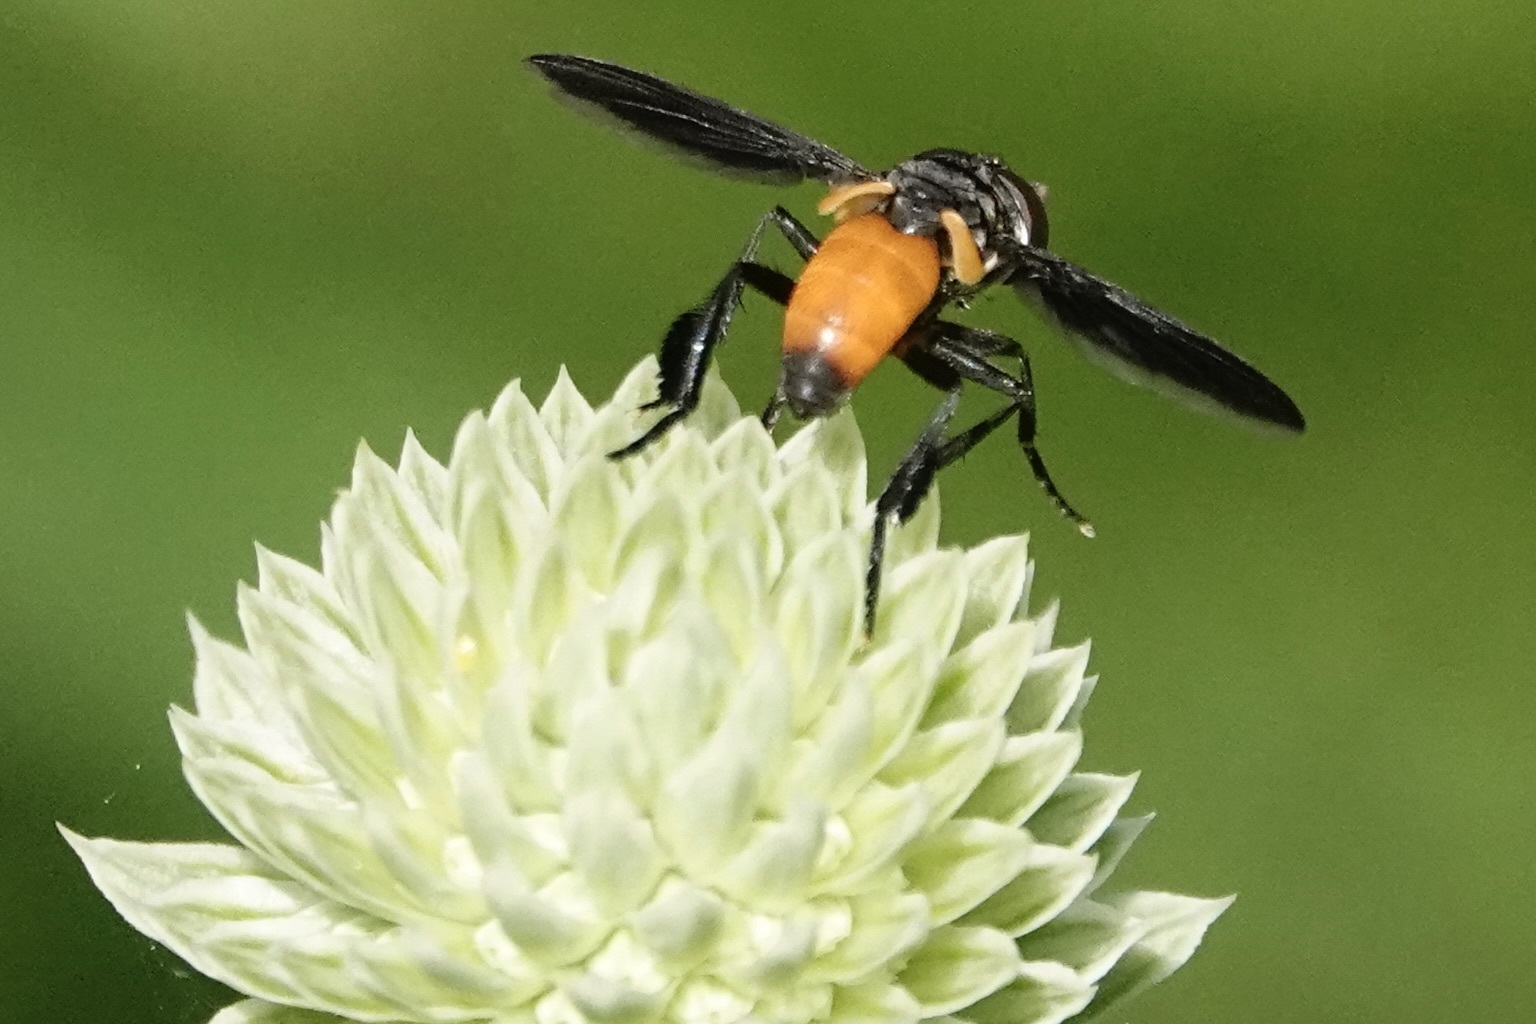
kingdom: Animalia
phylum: Arthropoda
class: Insecta
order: Diptera
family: Tachinidae
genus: Trichopoda
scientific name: Trichopoda pennipes
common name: Tachinid fly
